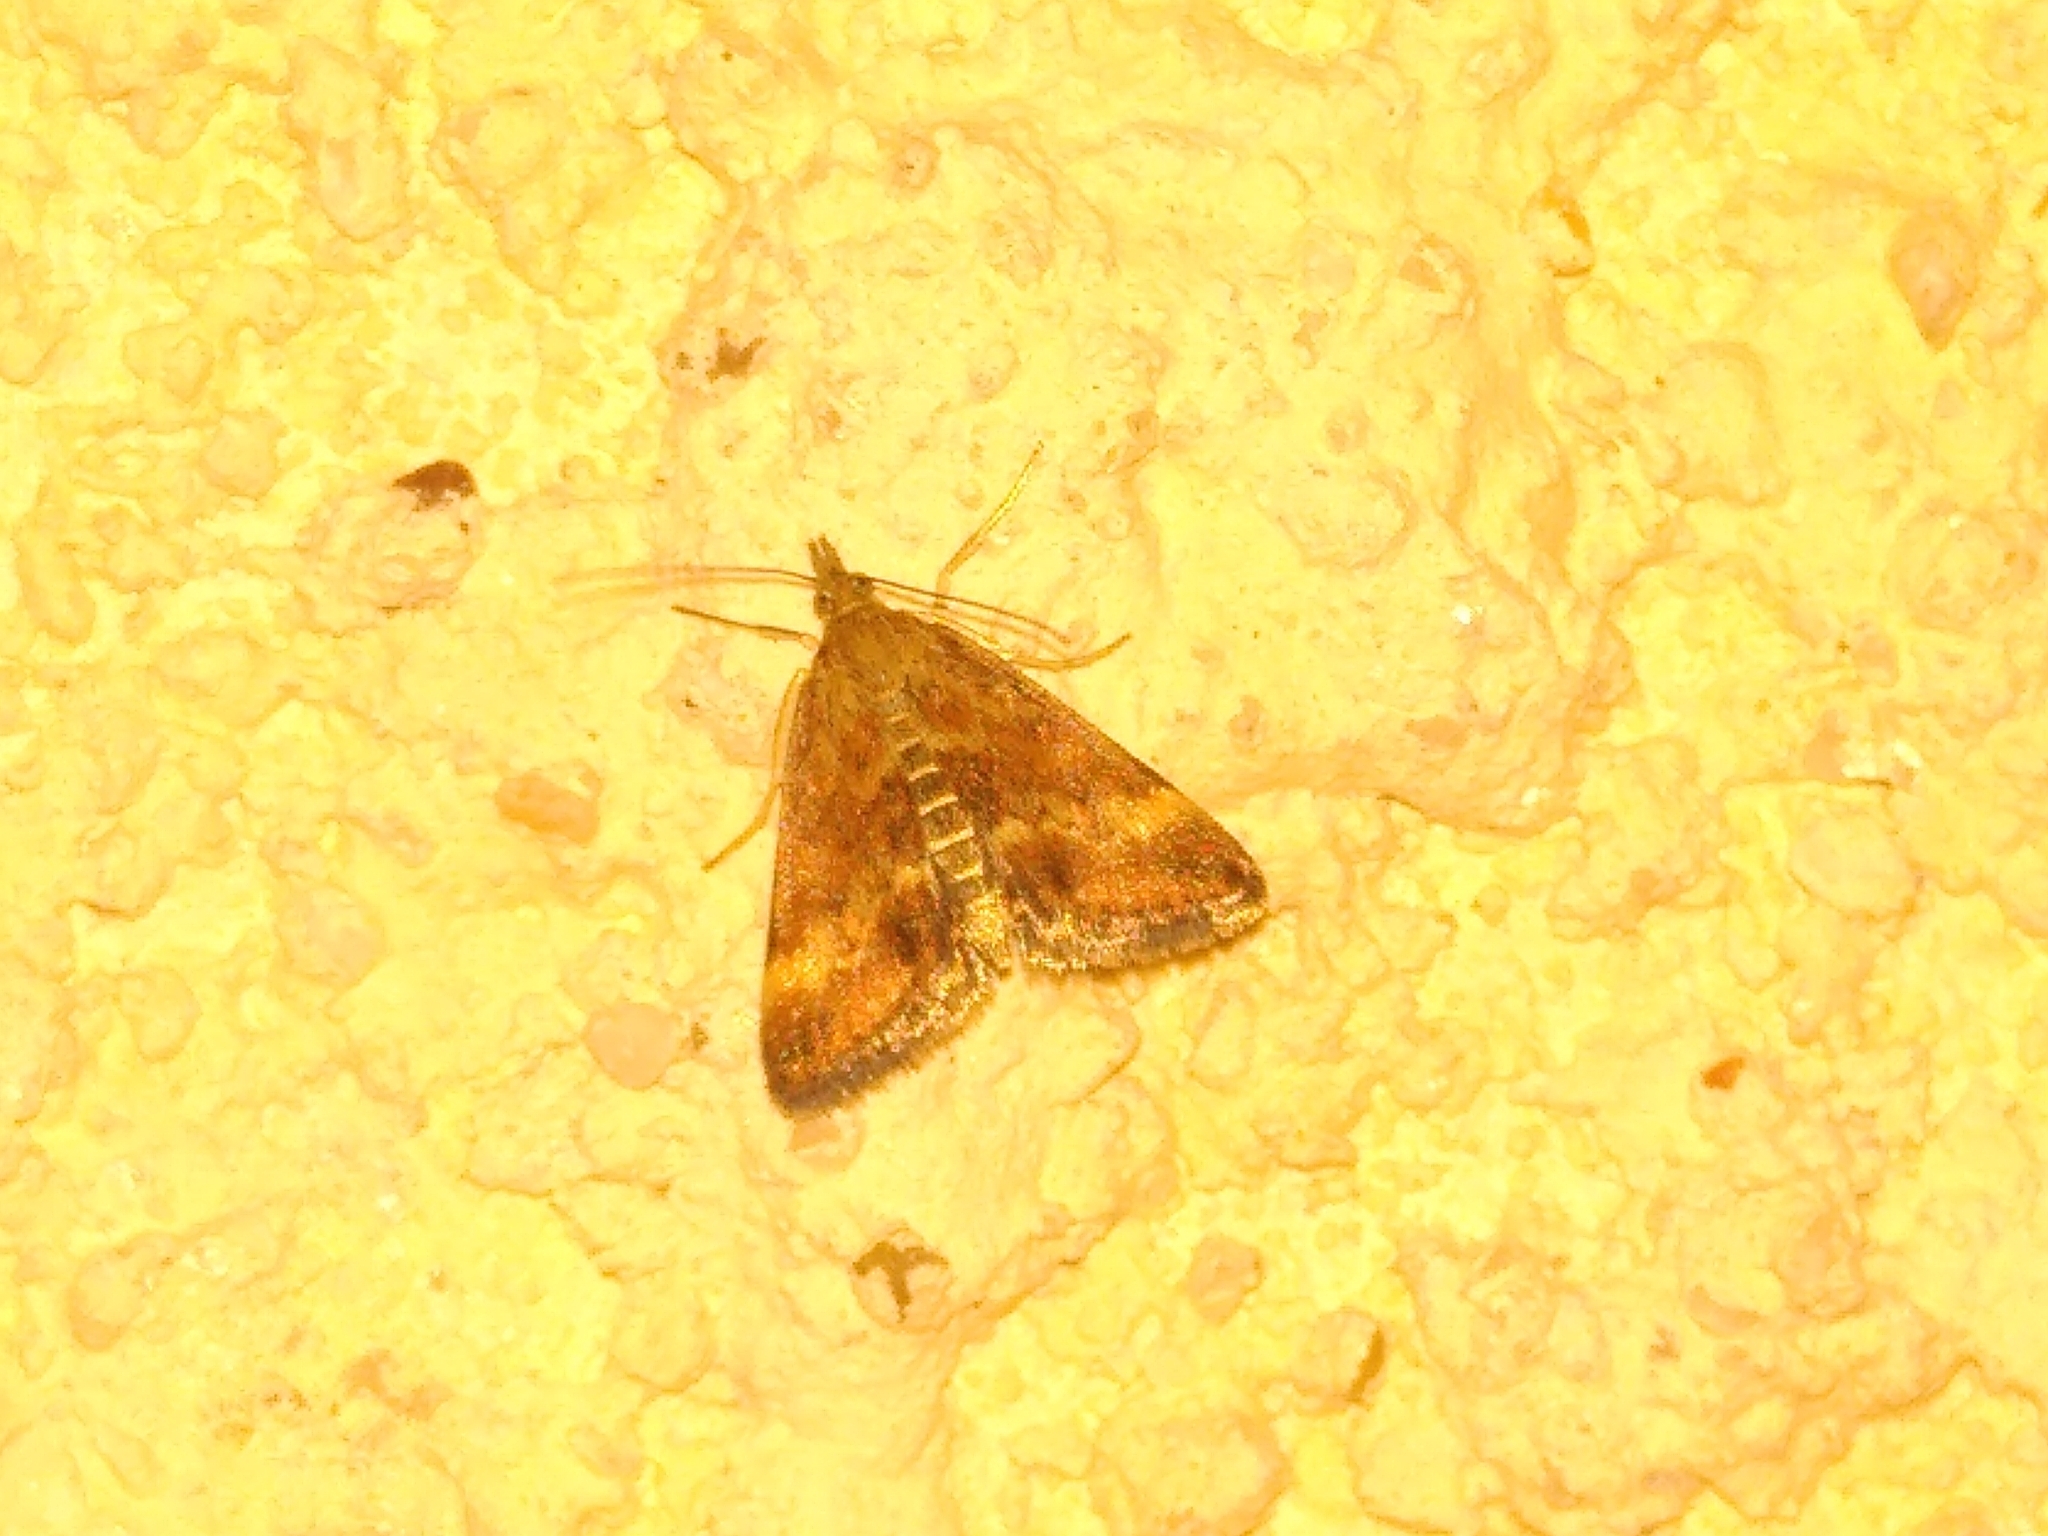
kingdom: Animalia
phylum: Arthropoda
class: Insecta
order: Lepidoptera
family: Crambidae
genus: Pyrausta
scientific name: Pyrausta despicata
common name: Straw-barred pearl
